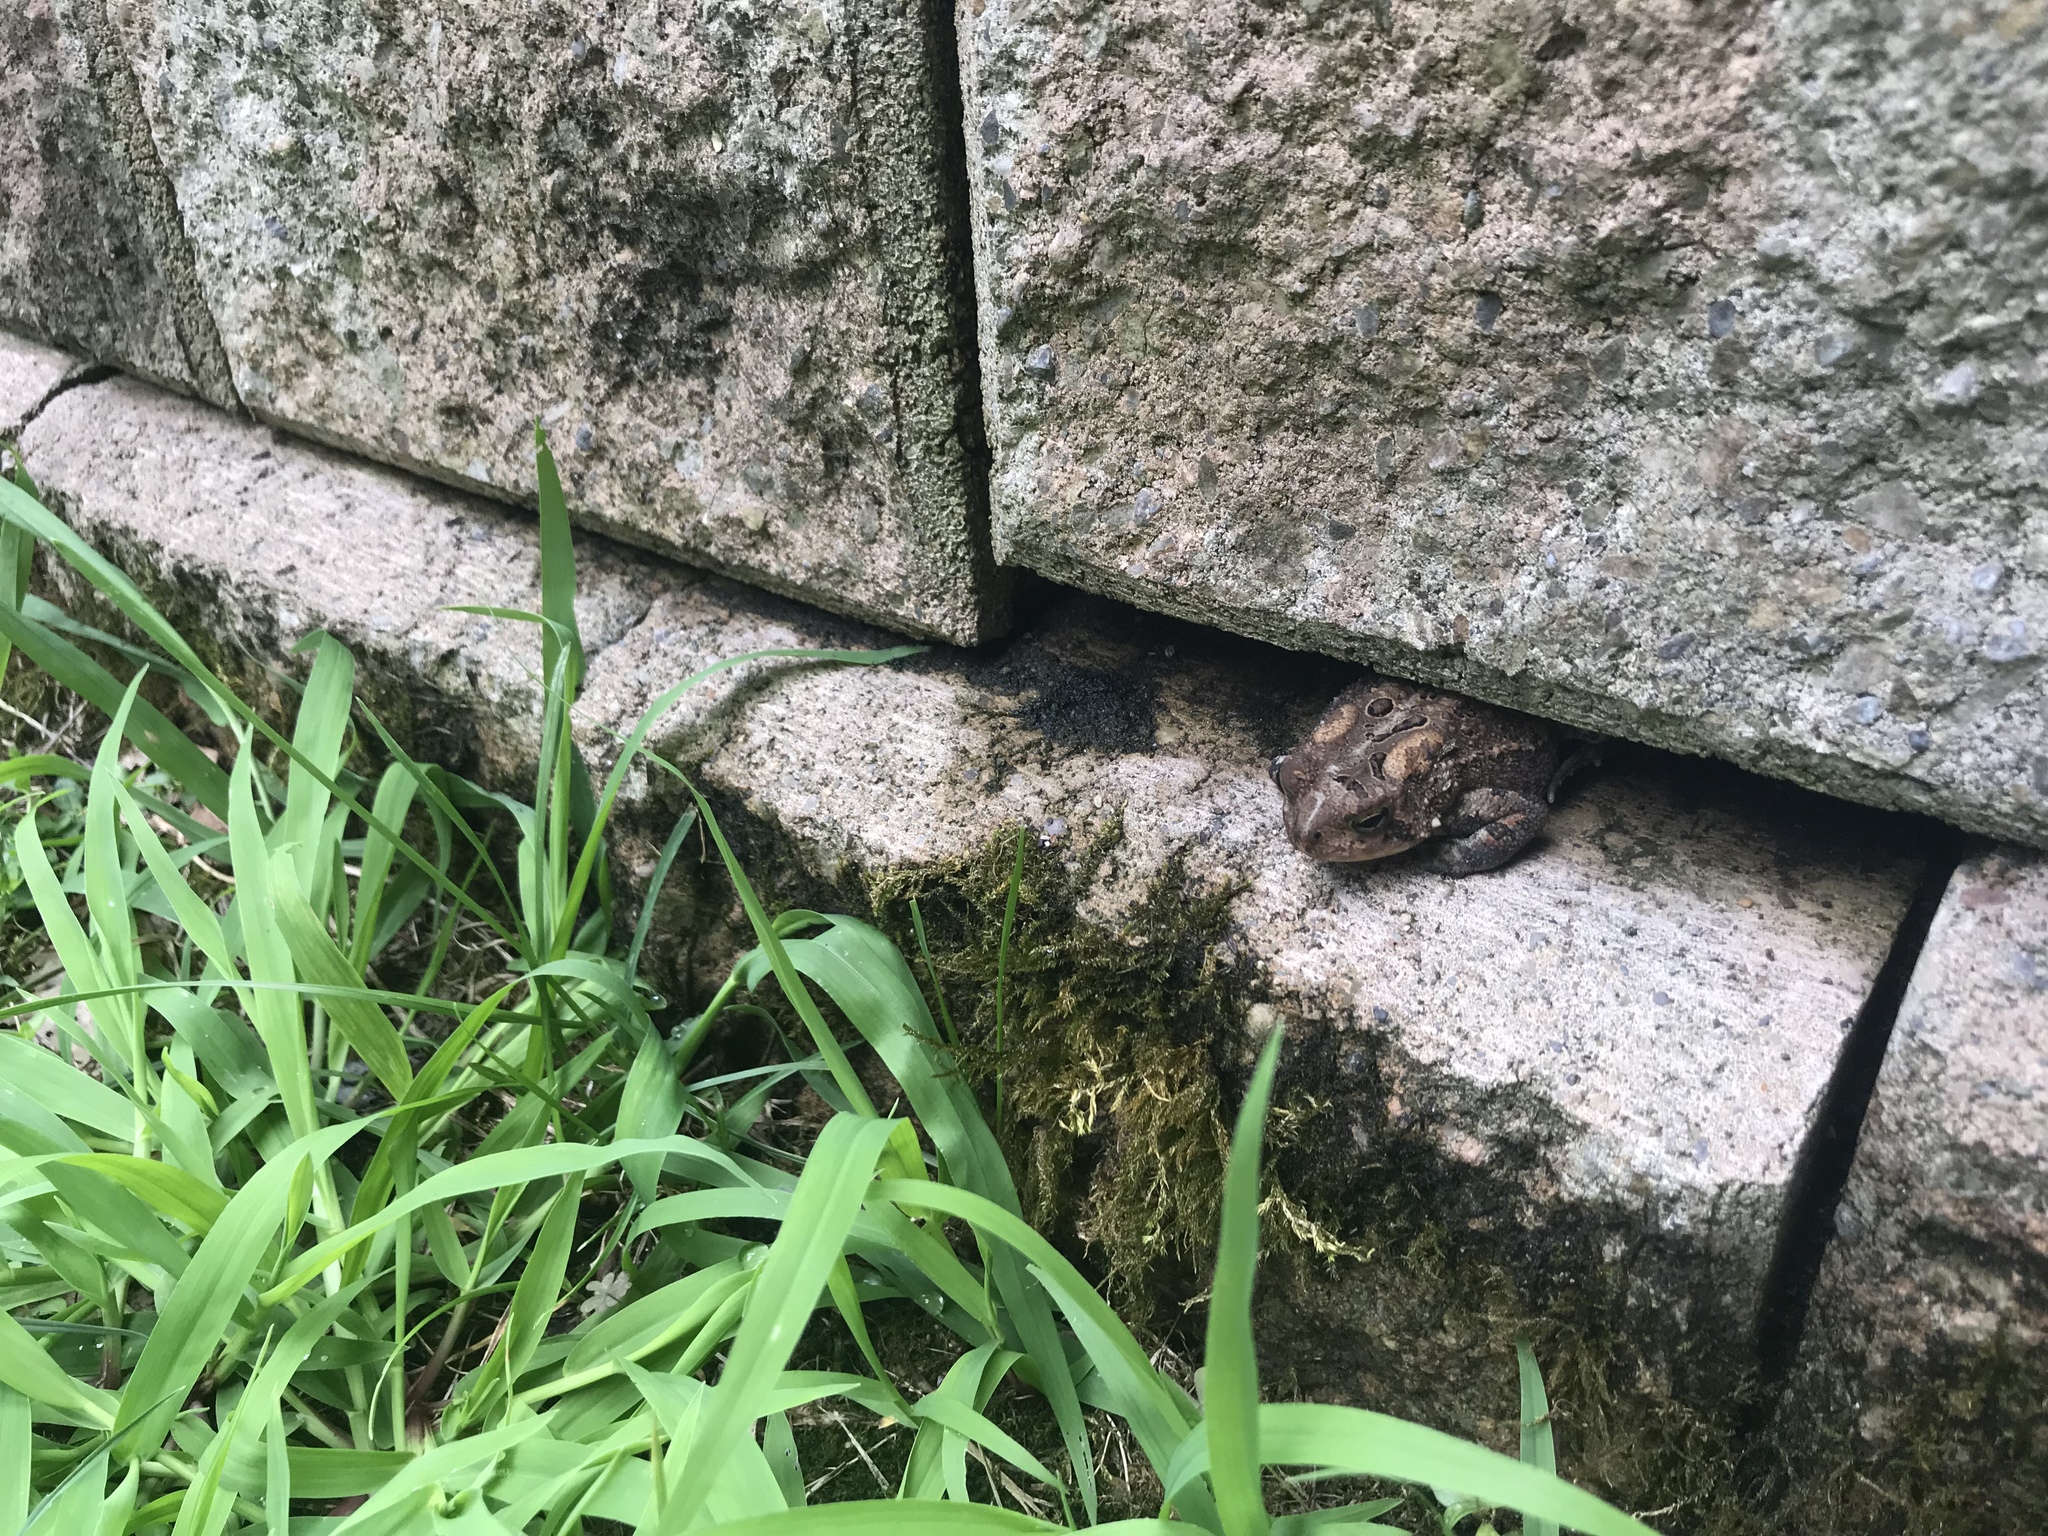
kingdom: Animalia
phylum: Chordata
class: Amphibia
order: Anura
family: Bufonidae
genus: Anaxyrus
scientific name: Anaxyrus americanus
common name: American toad
